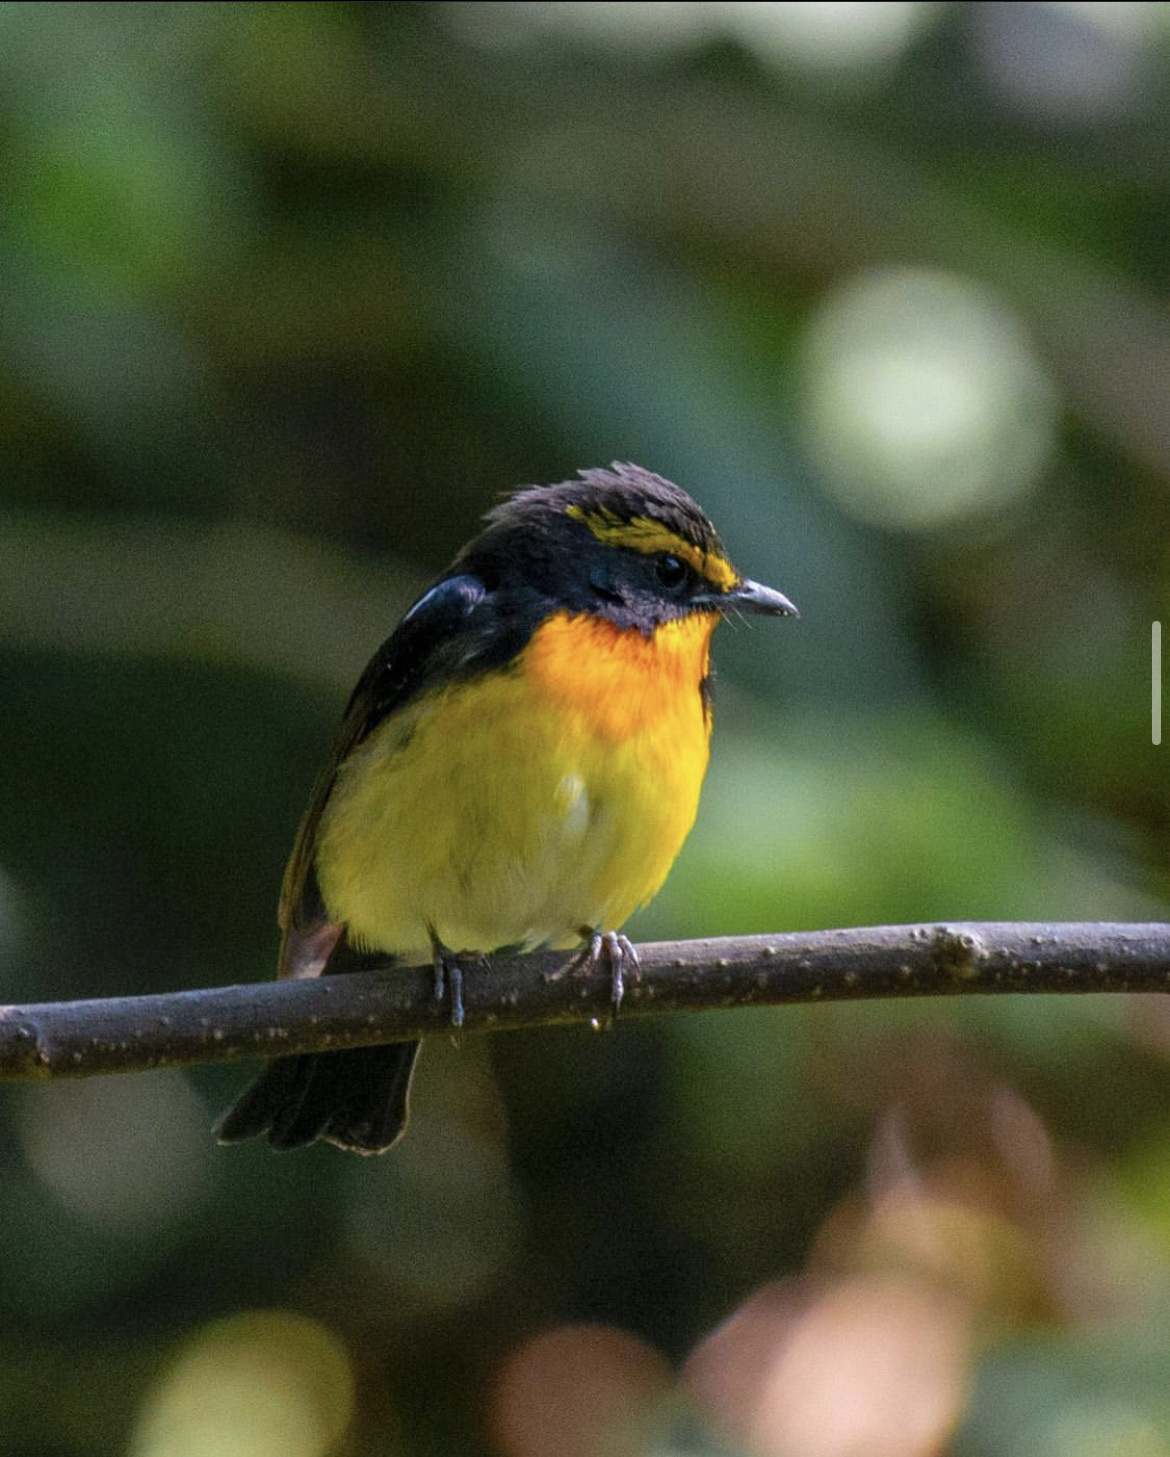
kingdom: Animalia
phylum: Chordata
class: Aves
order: Passeriformes
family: Muscicapidae
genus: Ficedula
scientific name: Ficedula narcissina
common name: Narcissus flycatcher
